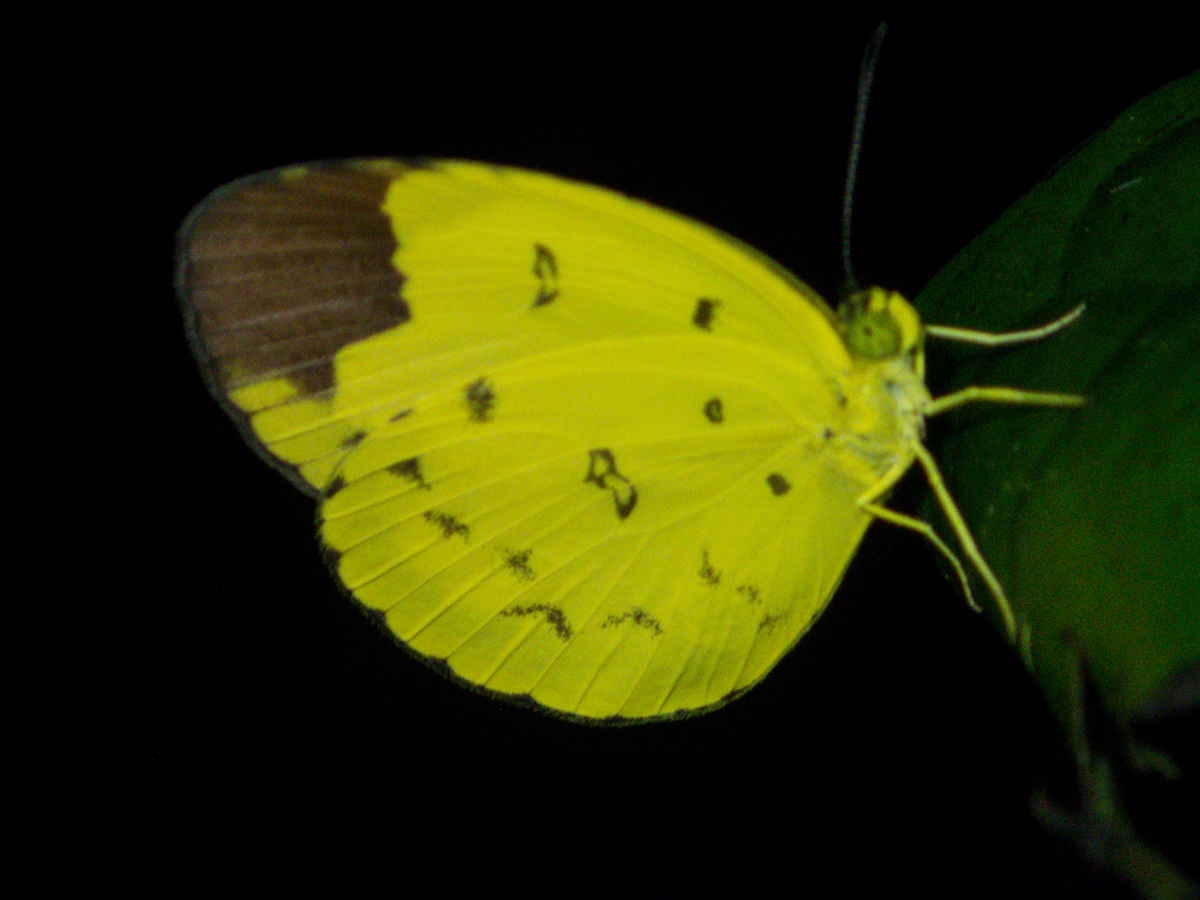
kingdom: Animalia
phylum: Arthropoda
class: Insecta
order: Lepidoptera
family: Pieridae
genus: Eurema
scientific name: Eurema sari
